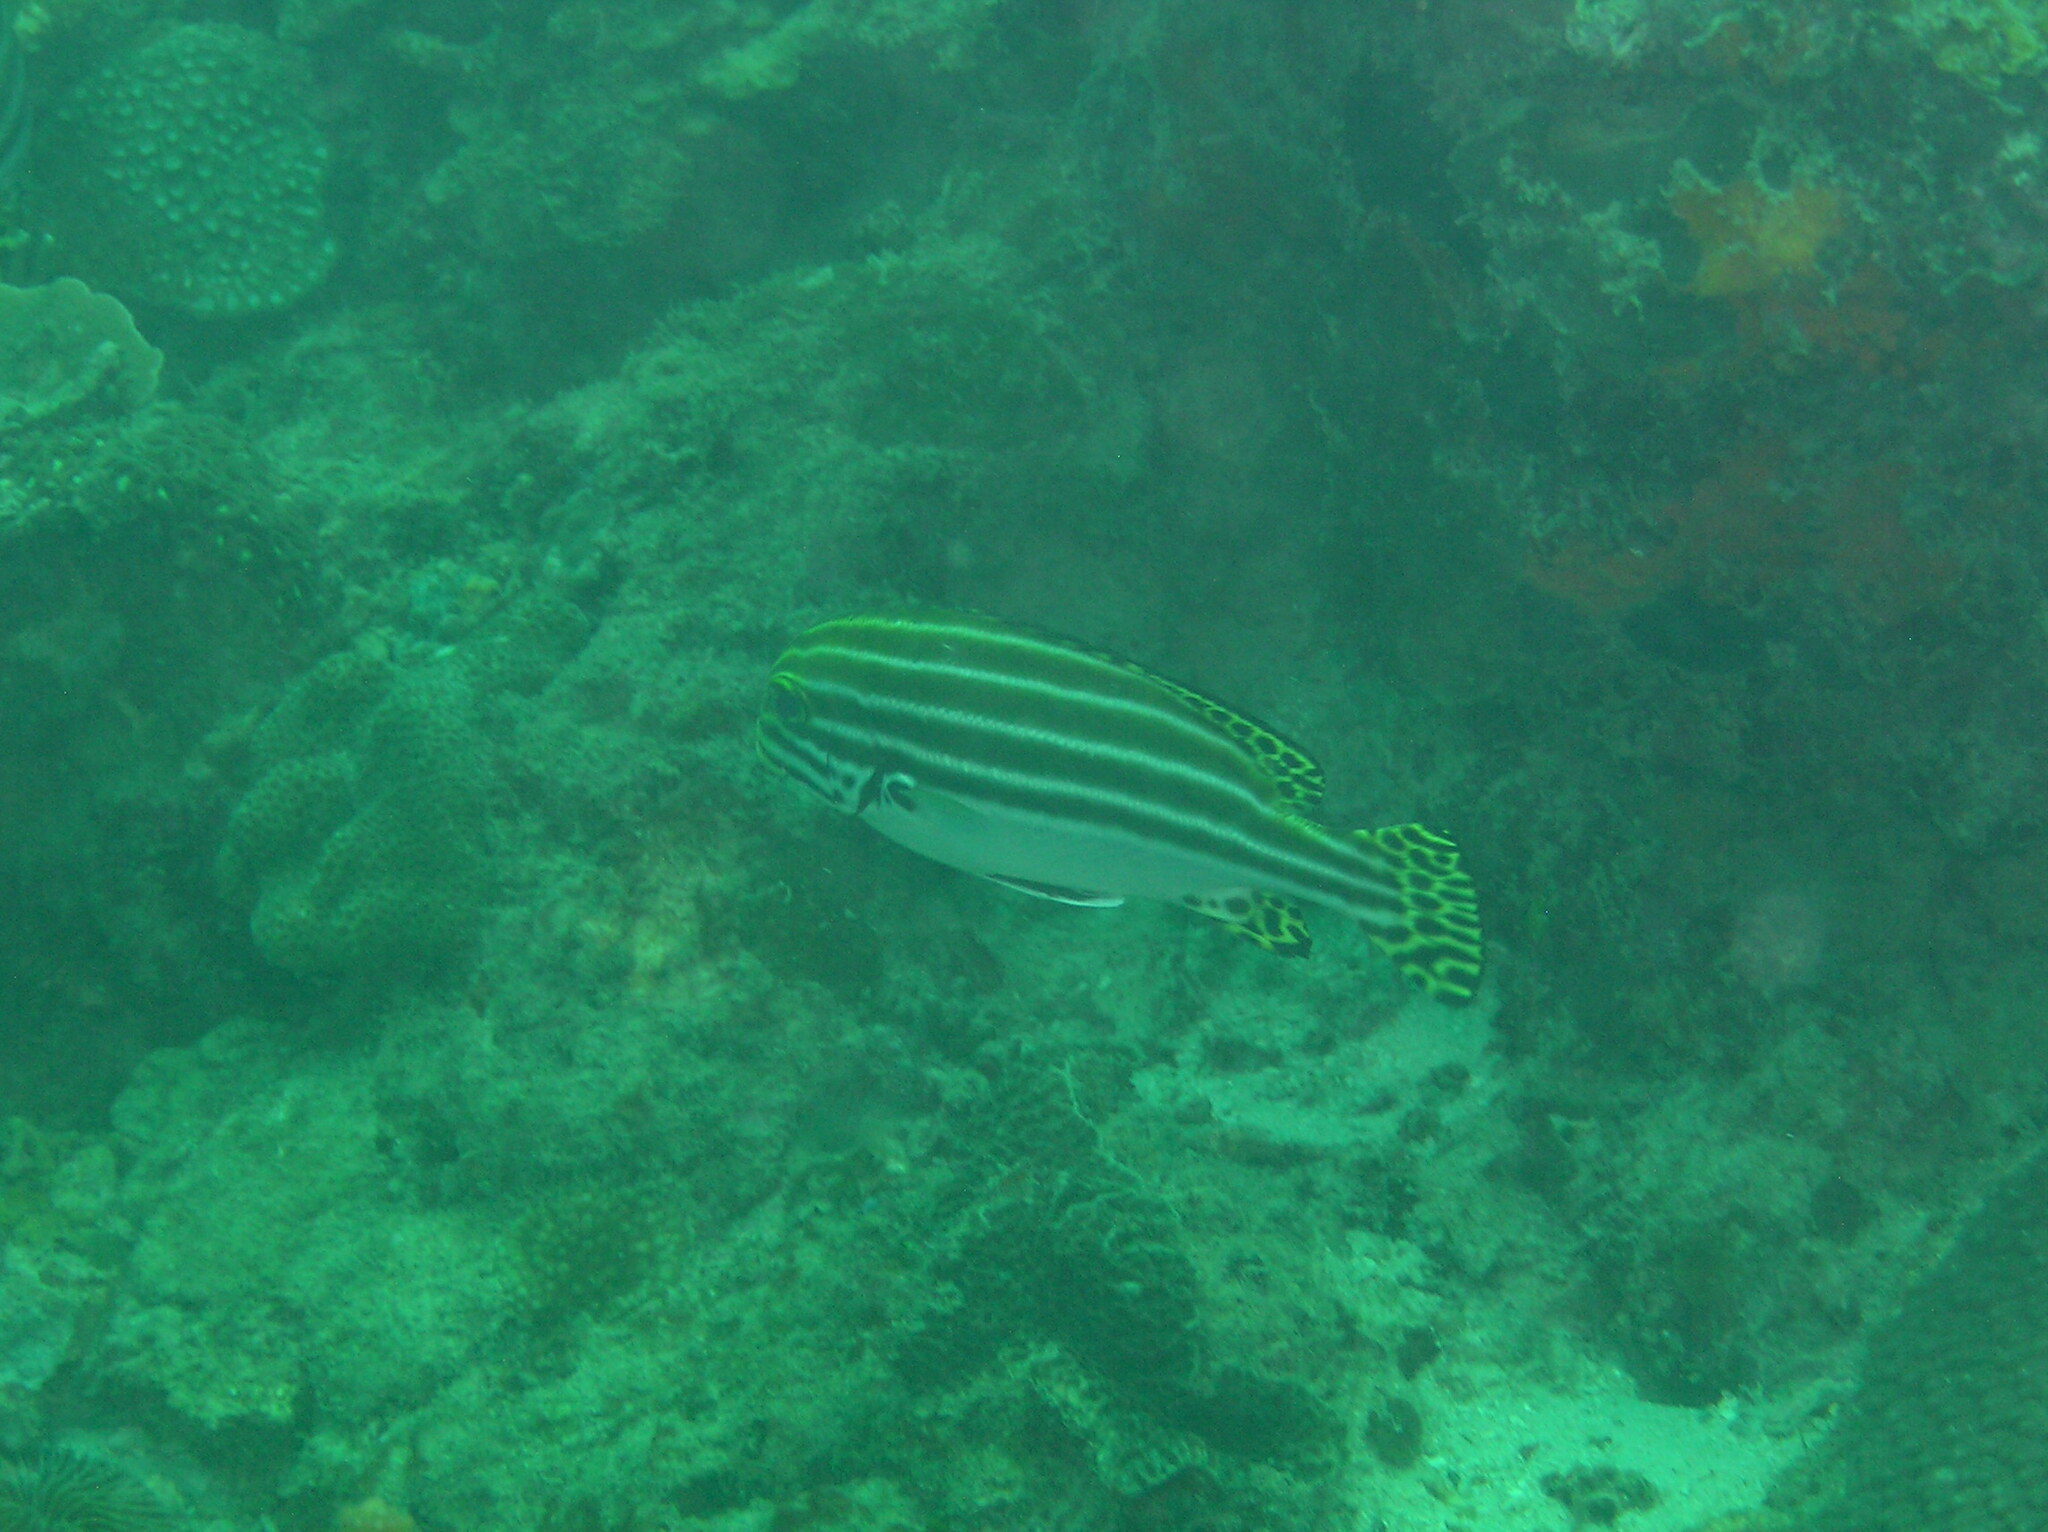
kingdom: Animalia
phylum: Chordata
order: Perciformes
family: Haemulidae
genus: Plectorhinchus
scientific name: Plectorhinchus lessonii
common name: Lesson's thicklip
